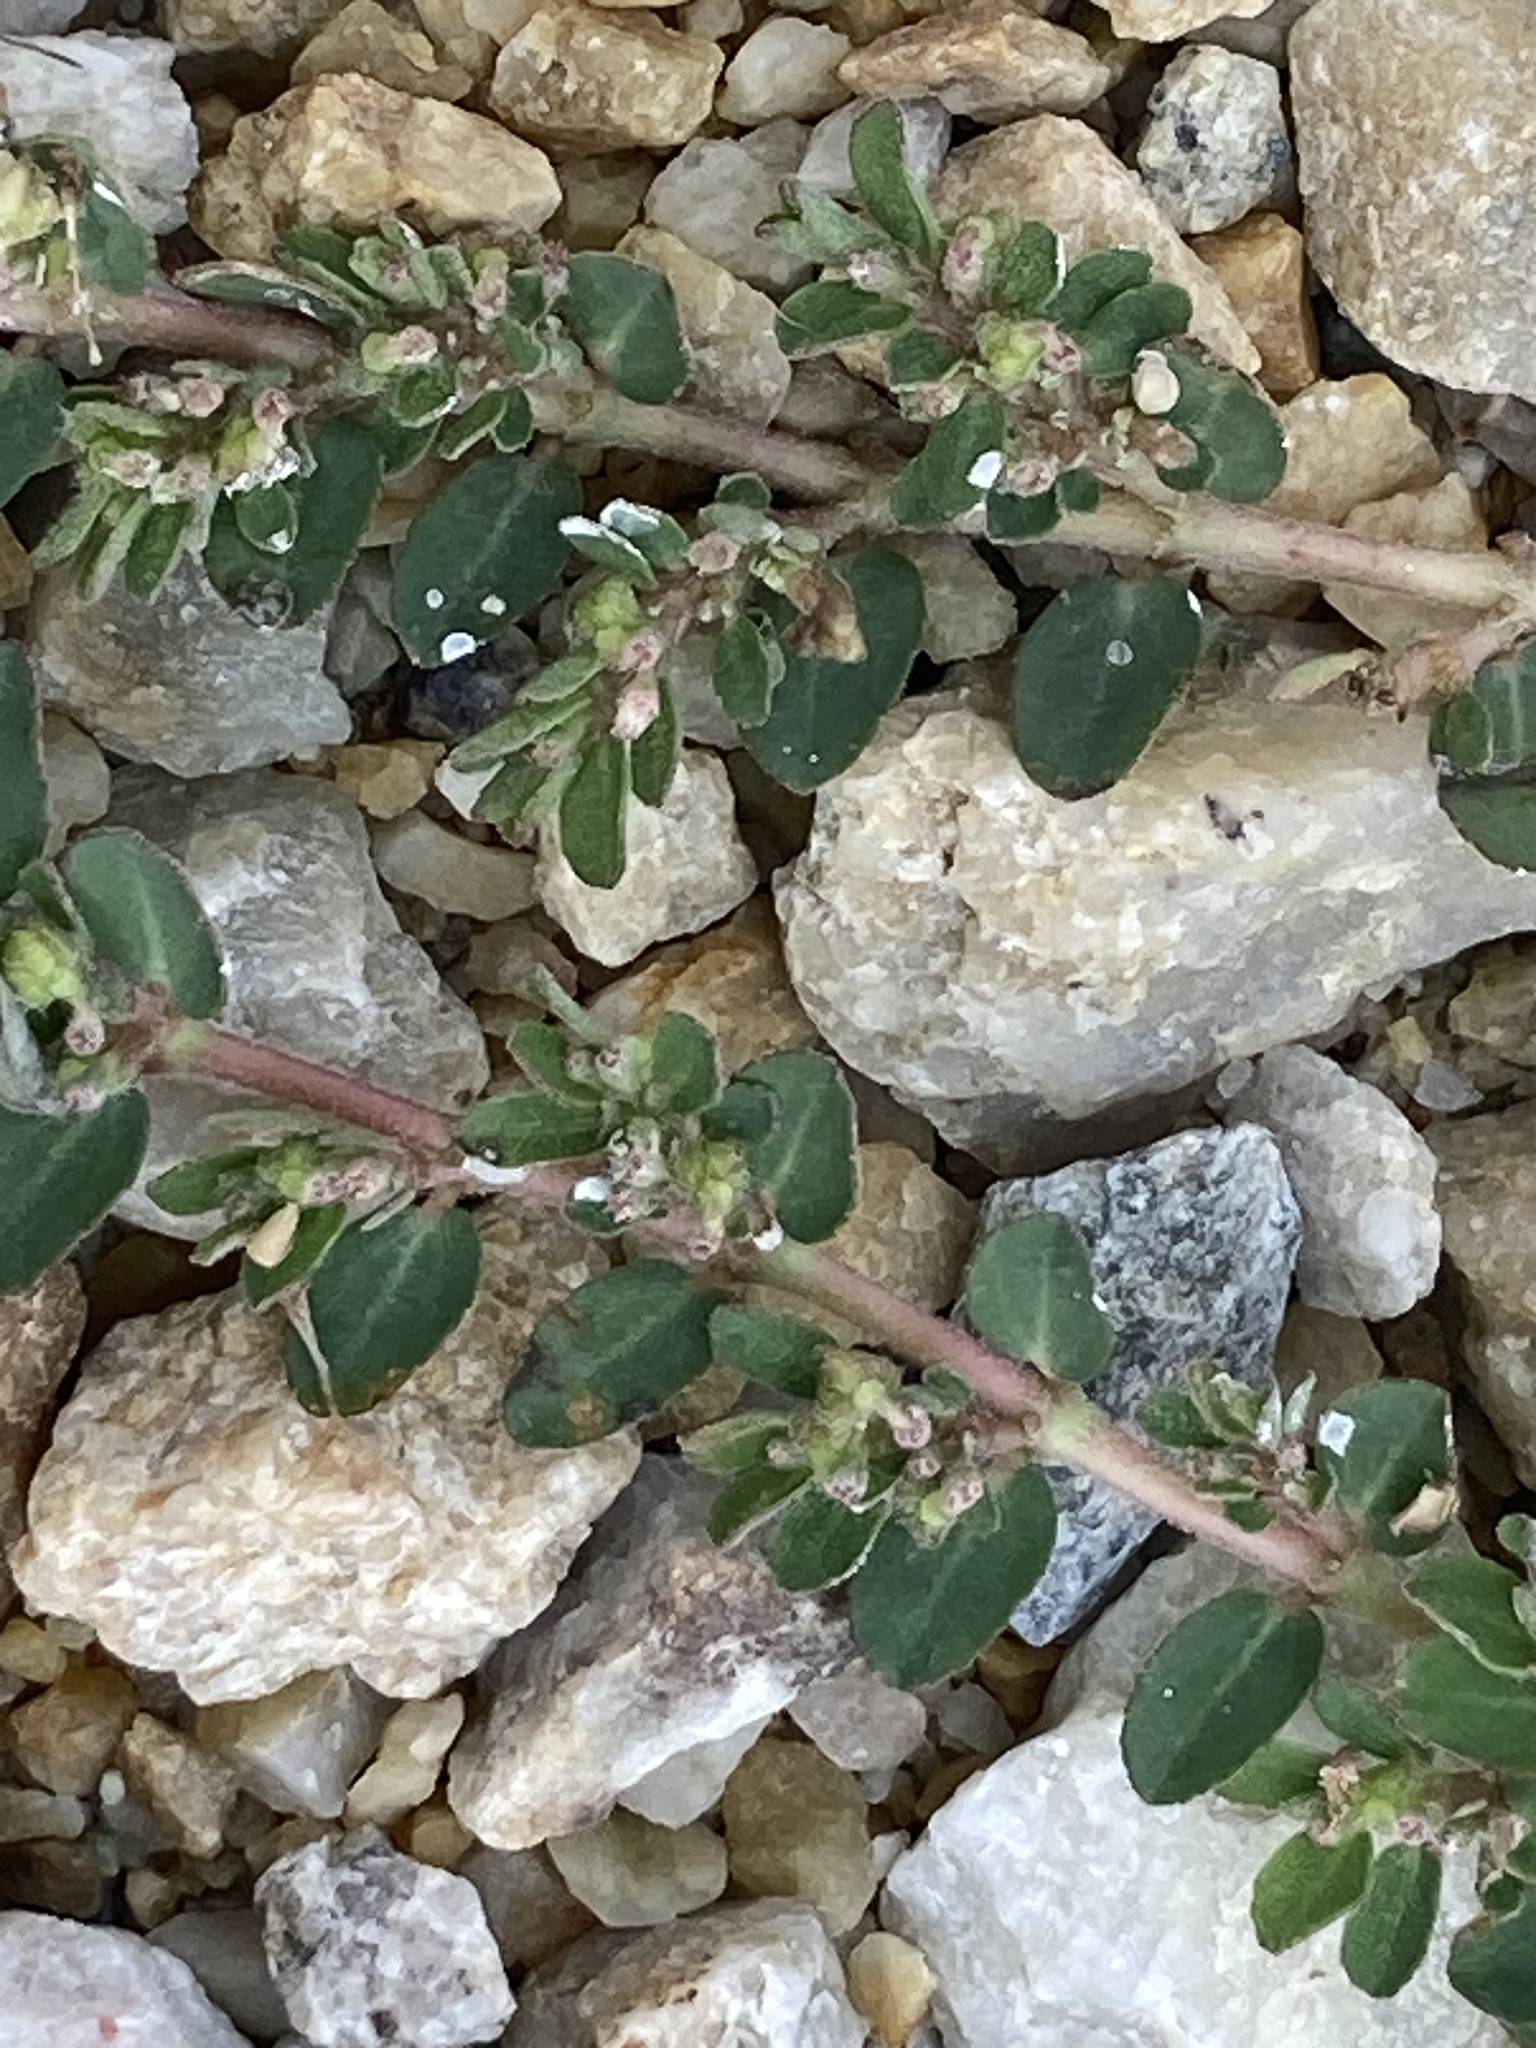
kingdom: Plantae
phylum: Tracheophyta
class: Magnoliopsida
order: Malpighiales
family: Euphorbiaceae
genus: Euphorbia
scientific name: Euphorbia maculata
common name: Spotted spurge
